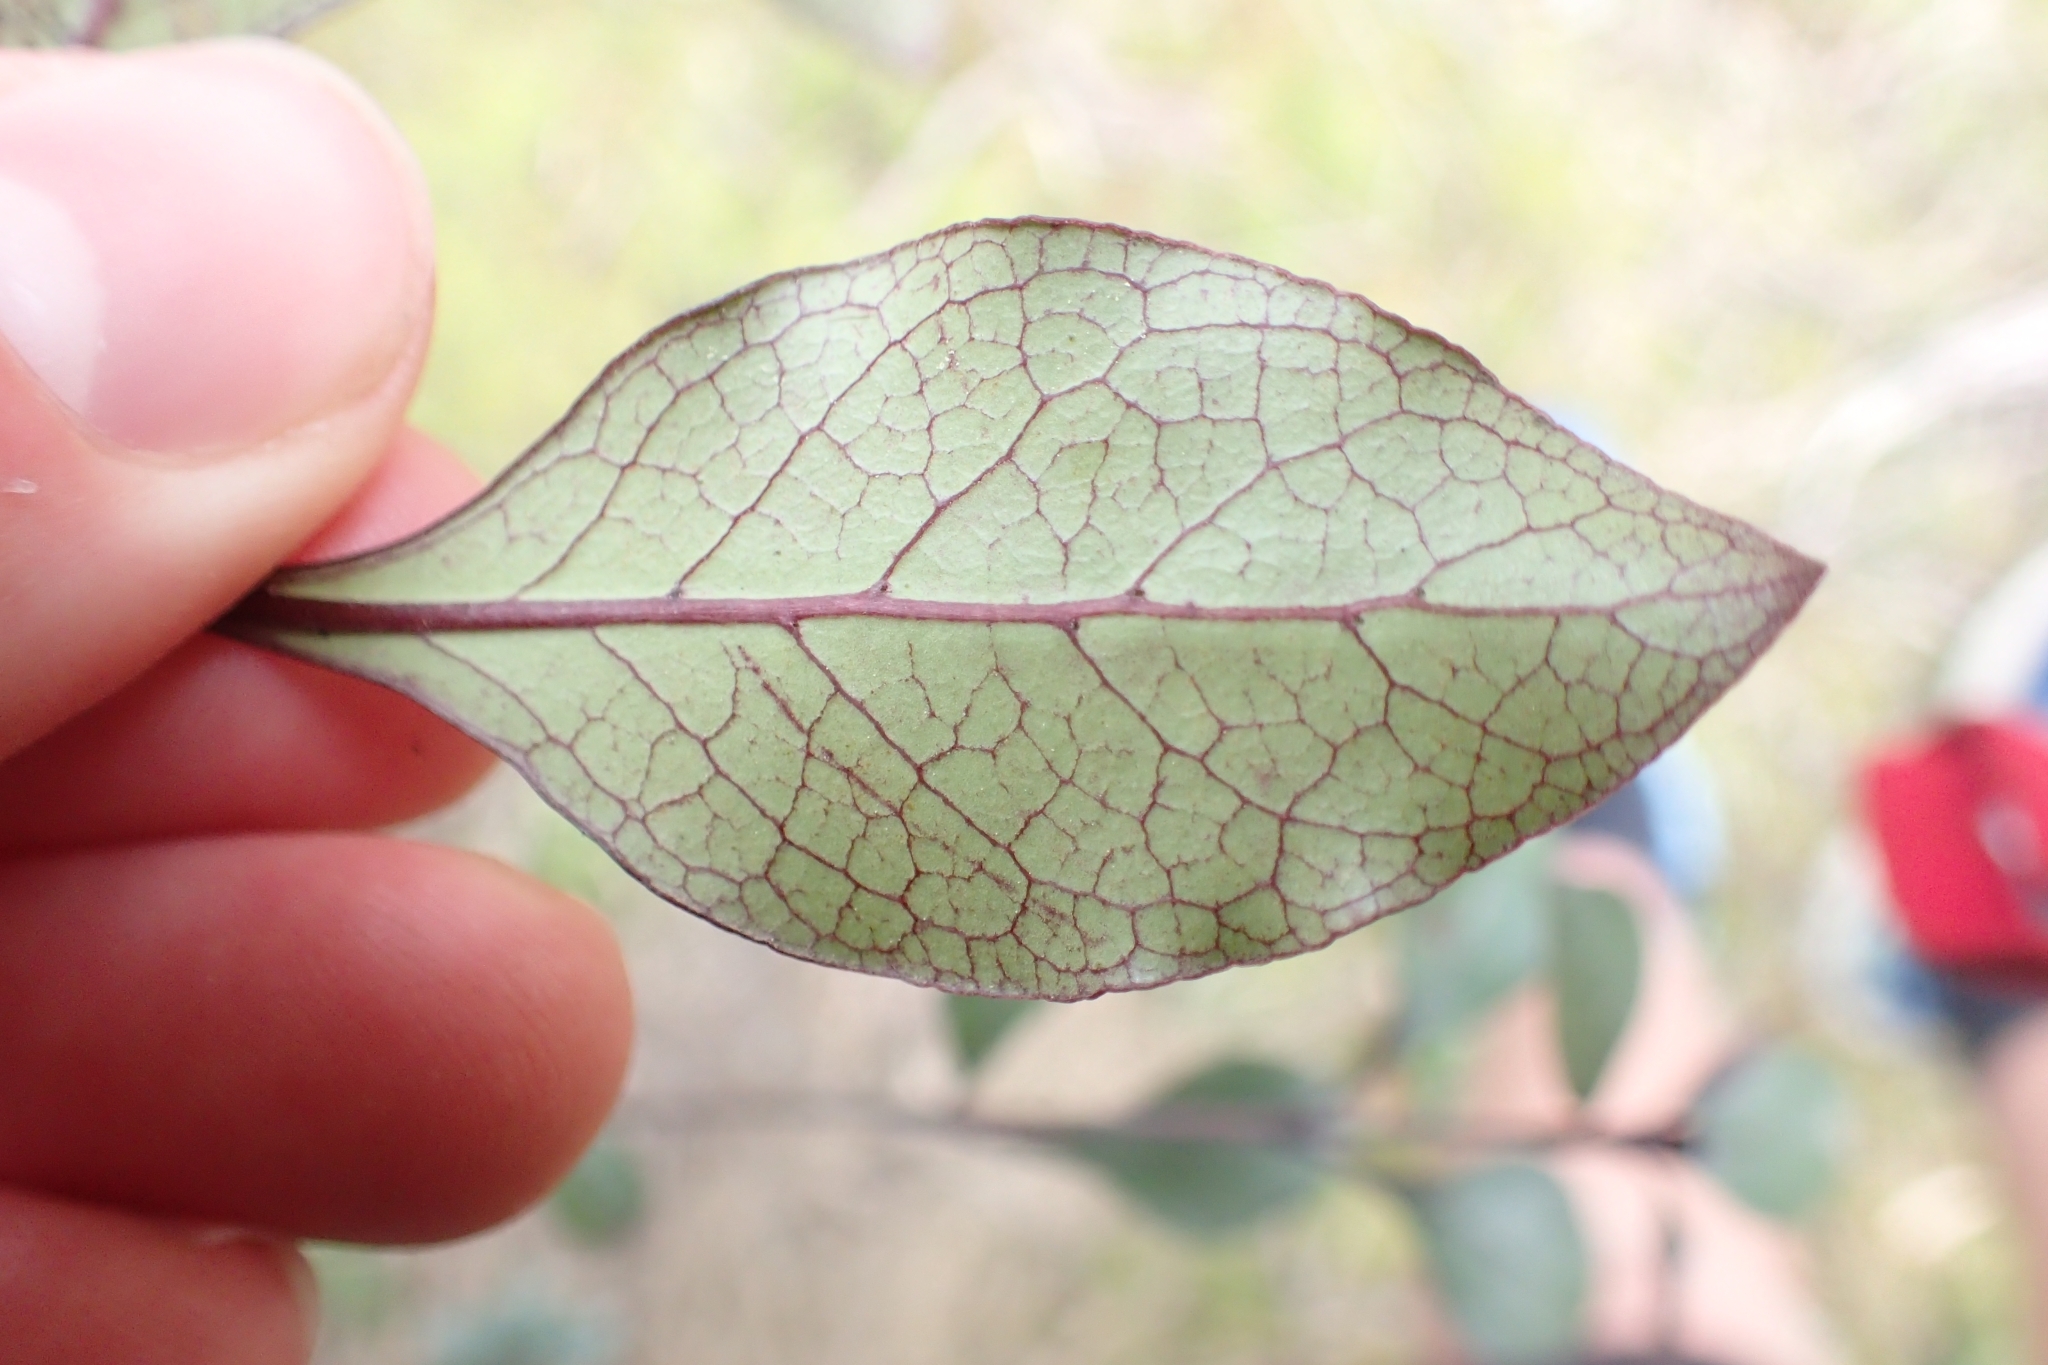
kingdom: Plantae
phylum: Tracheophyta
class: Magnoliopsida
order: Gentianales
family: Rubiaceae
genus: Coprosma
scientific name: Coprosma arborea
